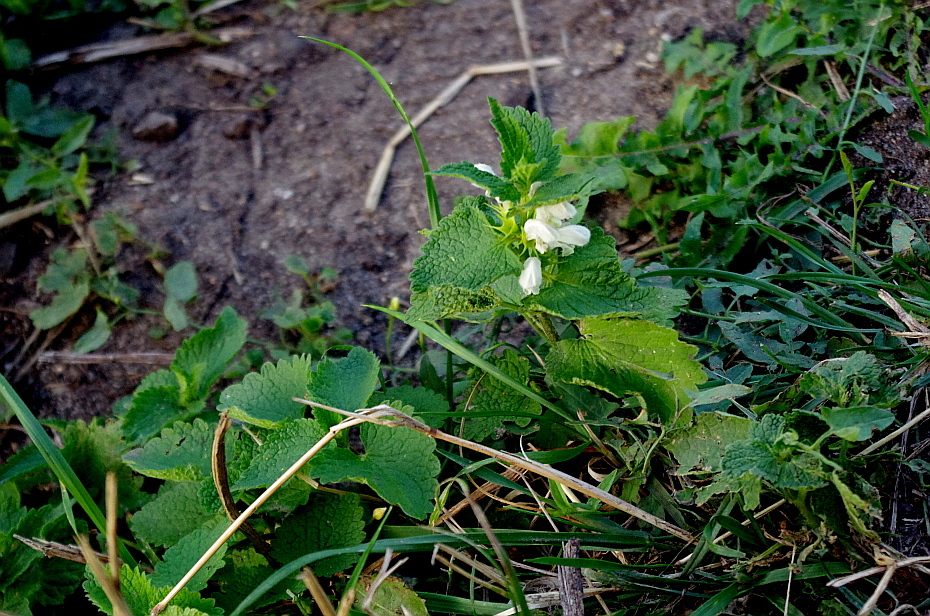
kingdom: Plantae
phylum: Tracheophyta
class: Magnoliopsida
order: Lamiales
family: Lamiaceae
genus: Lamium
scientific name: Lamium album
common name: White dead-nettle
